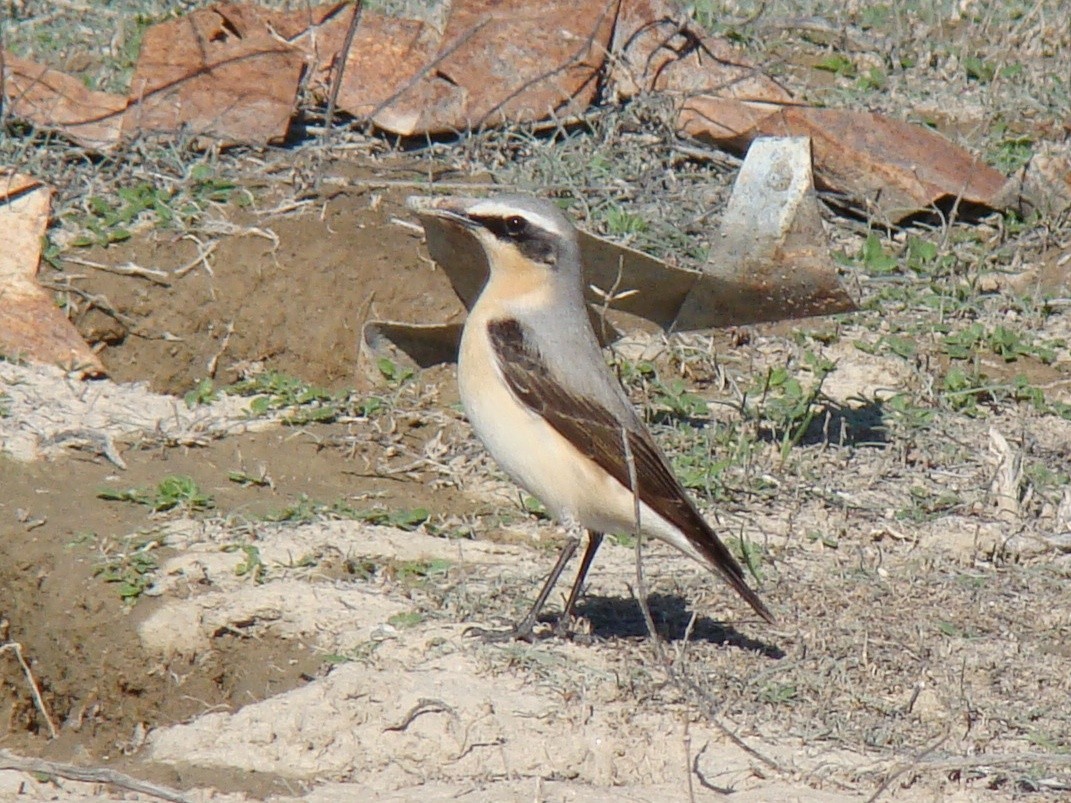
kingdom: Animalia
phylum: Chordata
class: Aves
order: Passeriformes
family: Muscicapidae
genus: Oenanthe
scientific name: Oenanthe oenanthe
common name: Northern wheatear
